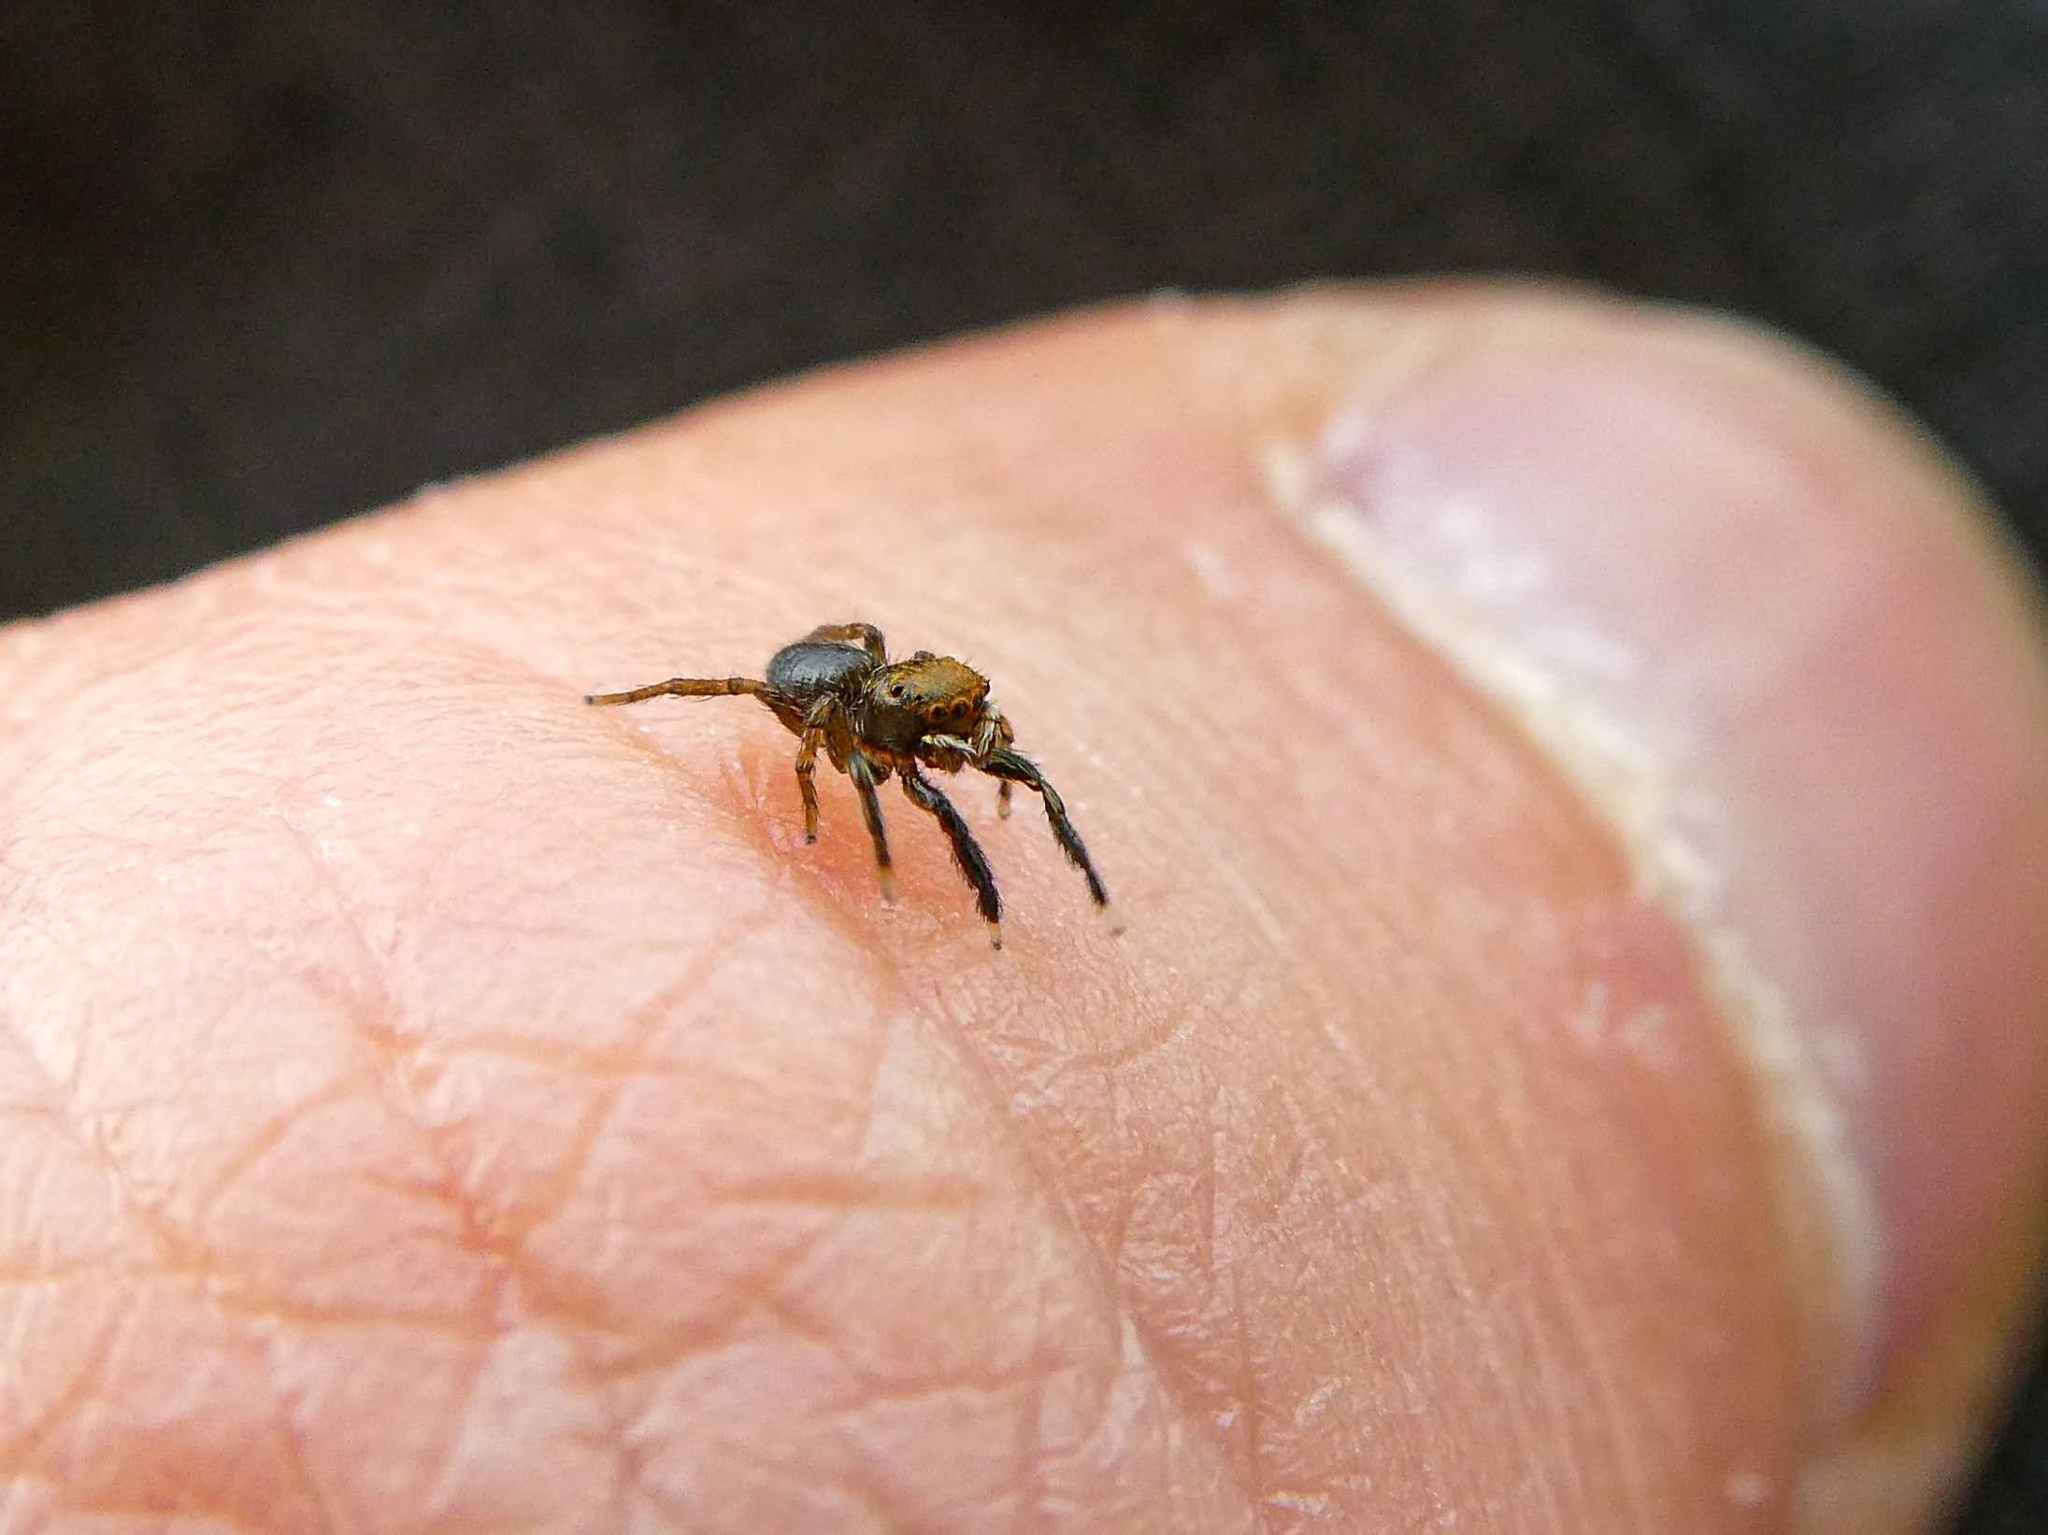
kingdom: Animalia
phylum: Arthropoda
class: Arachnida
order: Araneae
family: Salticidae
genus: Euophrys
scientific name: Euophrys frontalis
